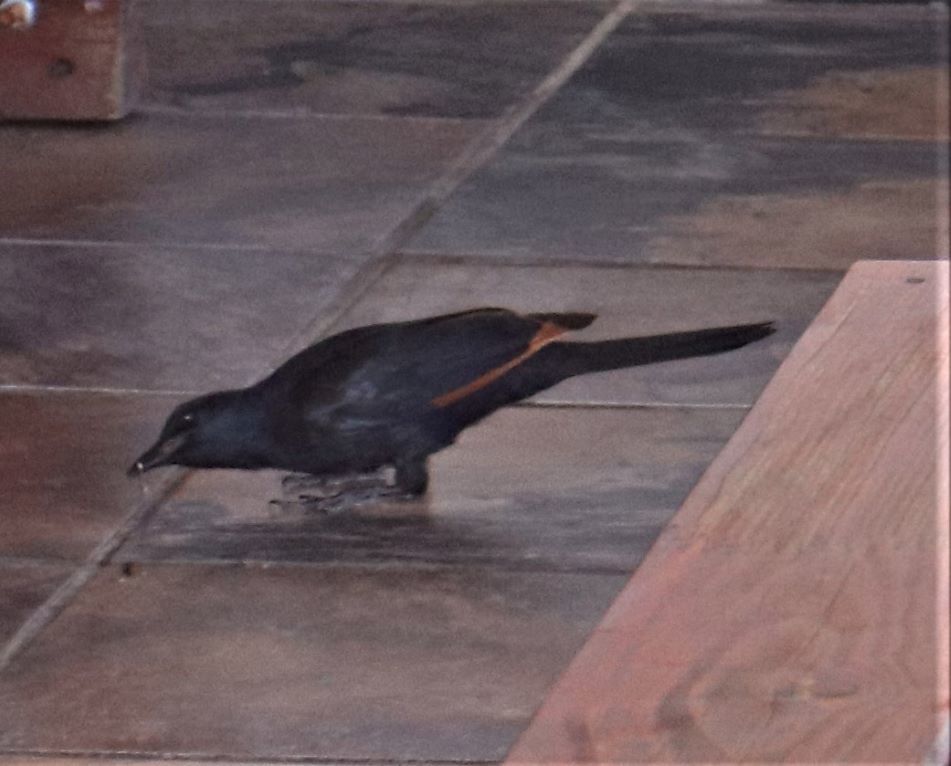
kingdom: Animalia
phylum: Chordata
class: Aves
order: Passeriformes
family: Sturnidae
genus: Onychognathus
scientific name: Onychognathus morio
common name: Red-winged starling
